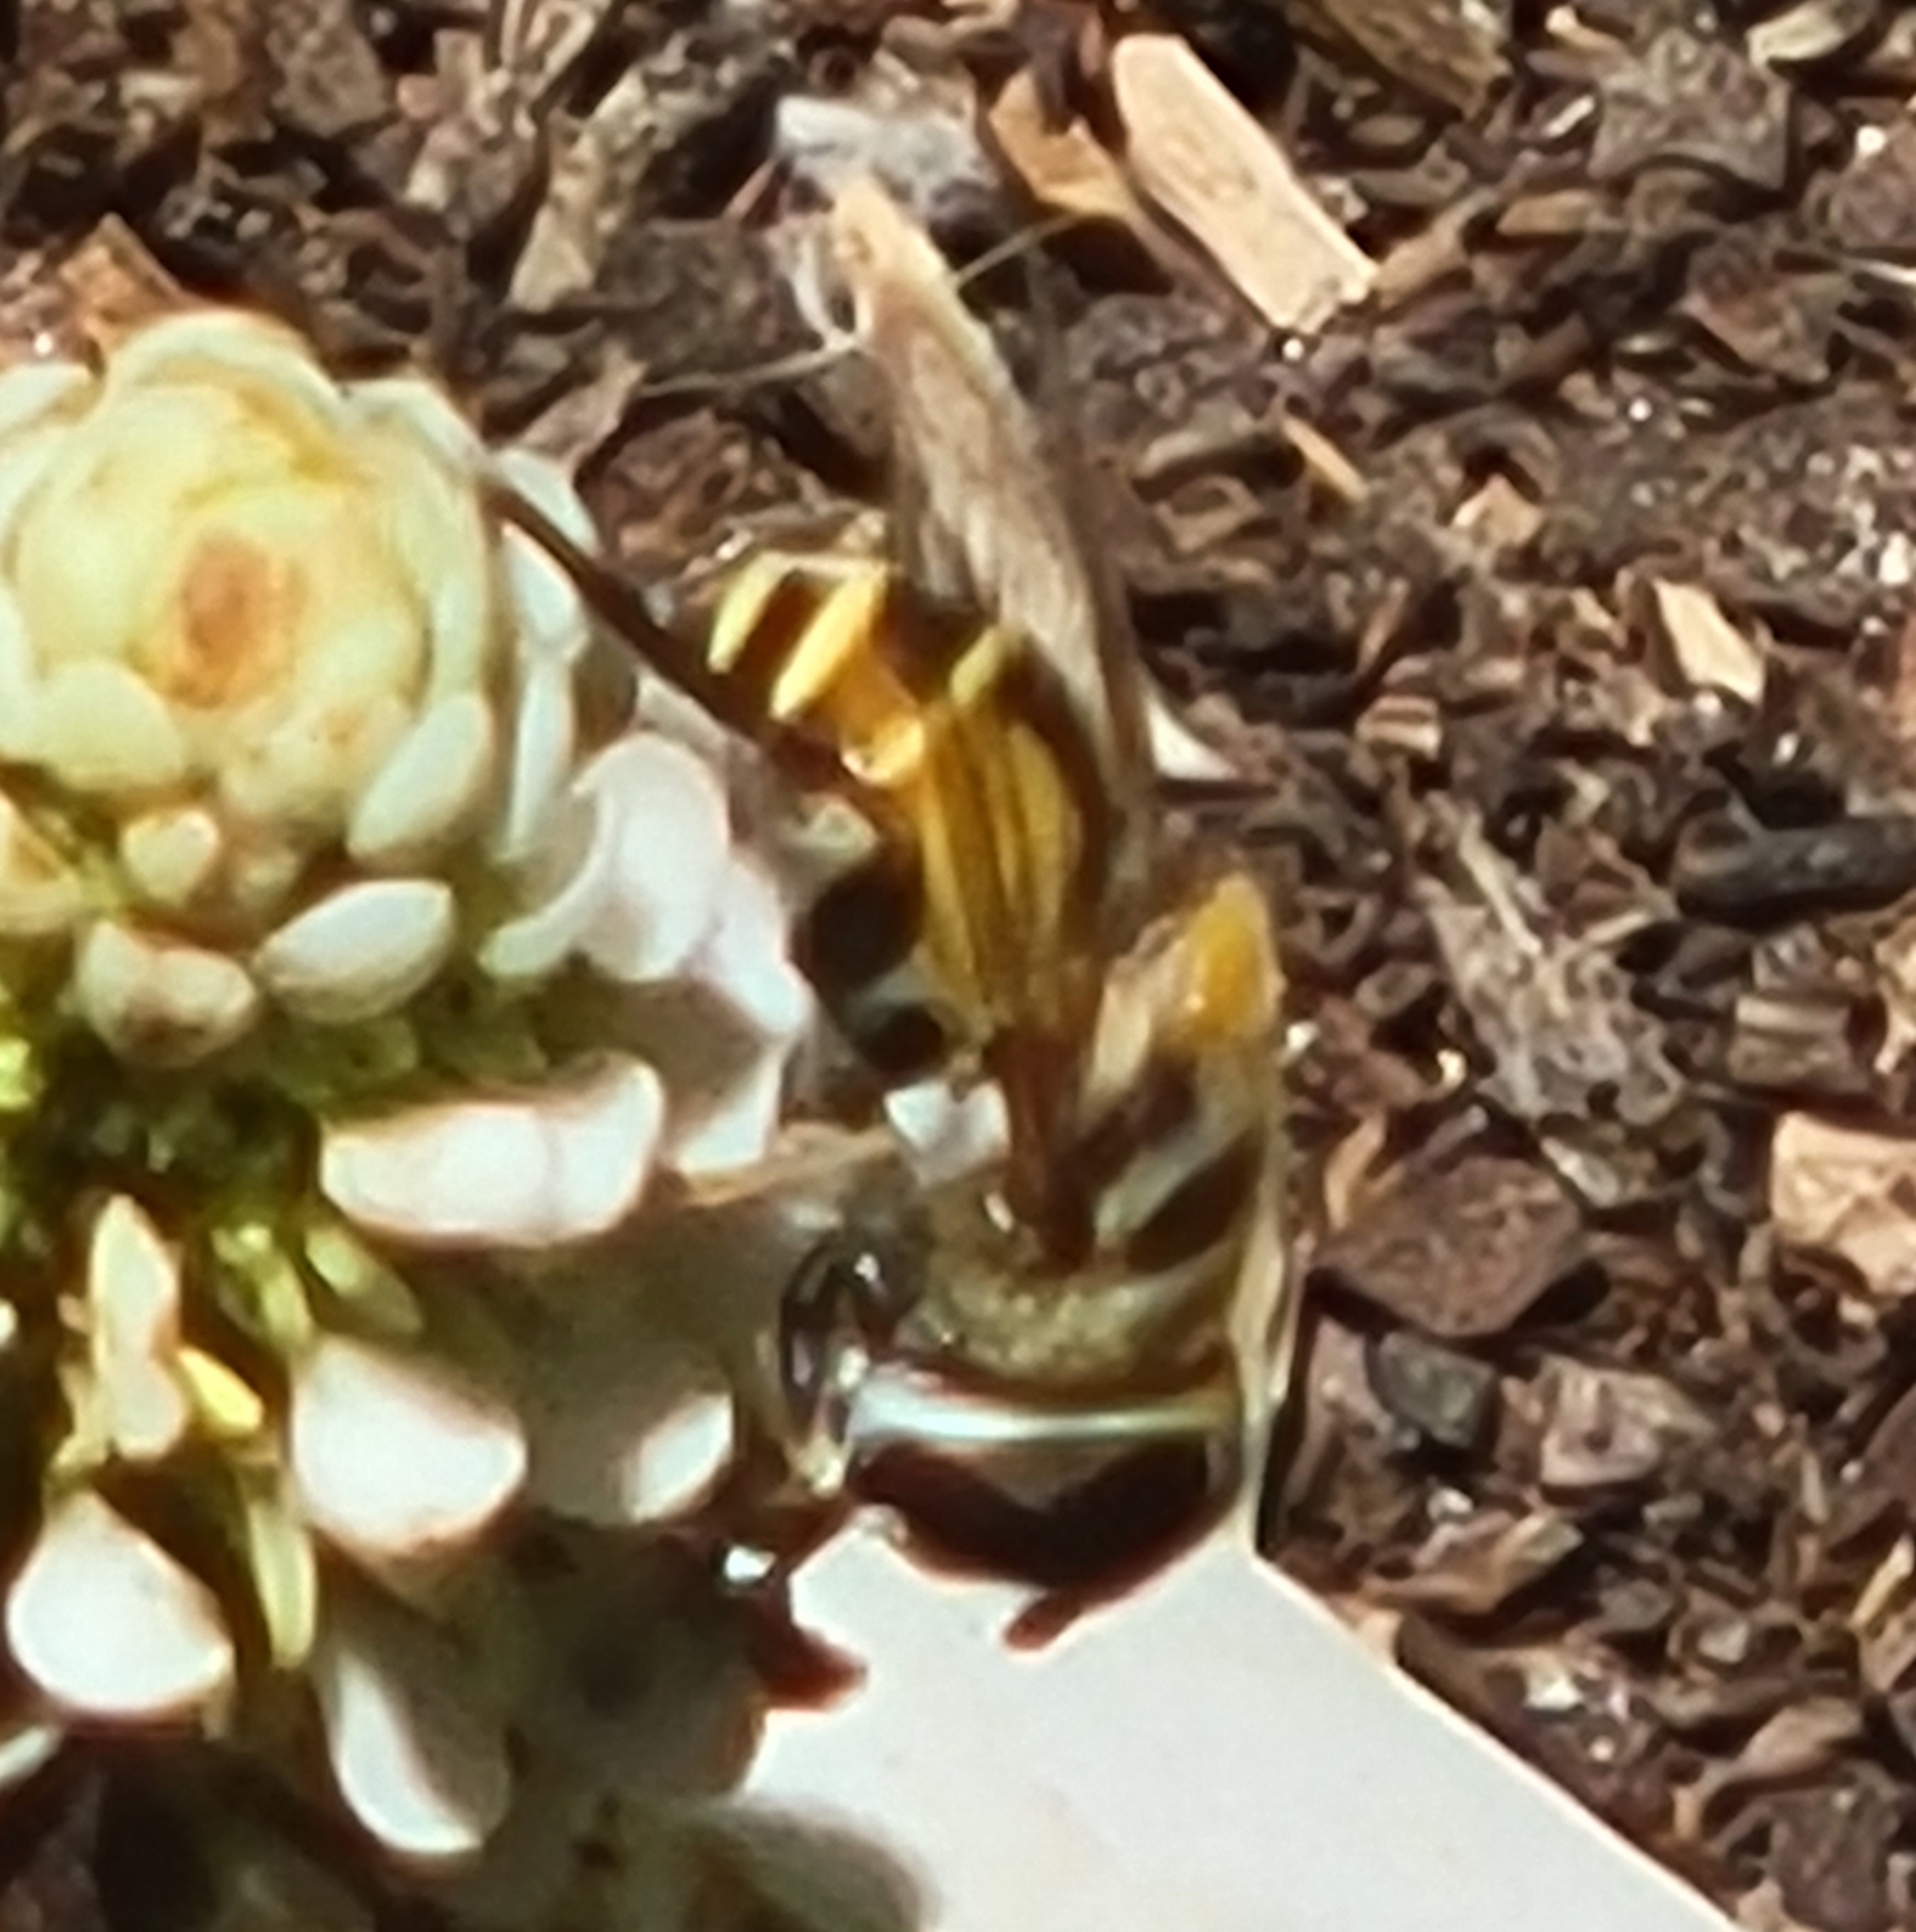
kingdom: Animalia
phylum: Arthropoda
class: Insecta
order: Diptera
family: Syrphidae
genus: Palpada
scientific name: Palpada alhambra
